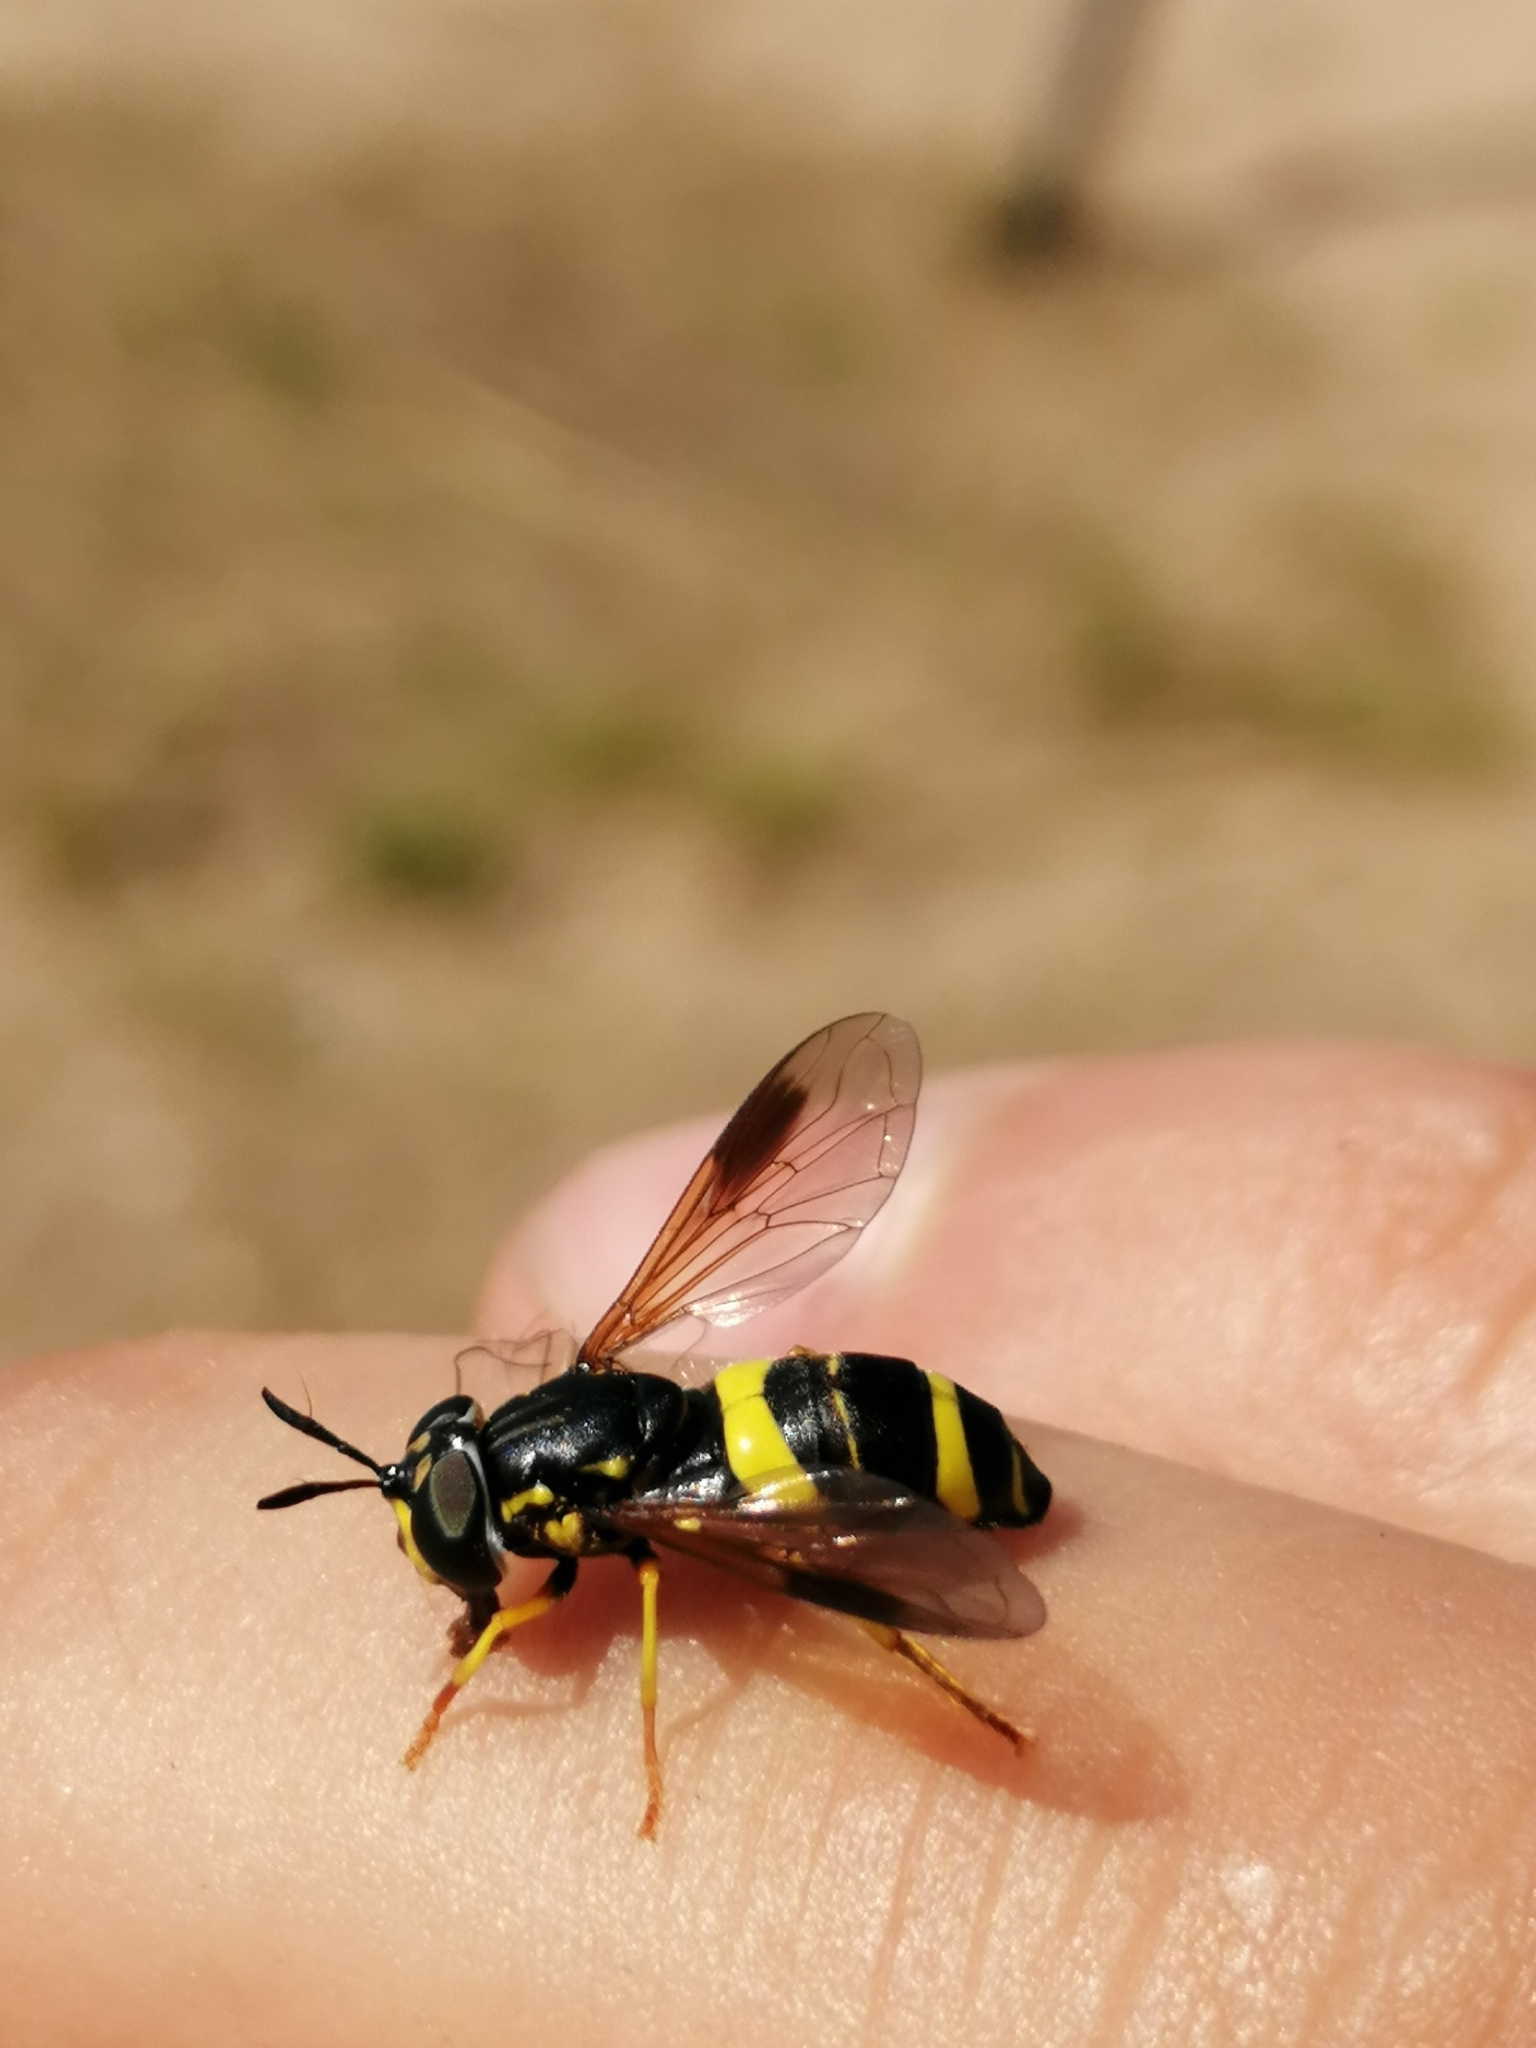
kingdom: Animalia
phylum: Arthropoda
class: Insecta
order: Diptera
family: Syrphidae
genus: Chrysotoxum
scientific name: Chrysotoxum bicincta
